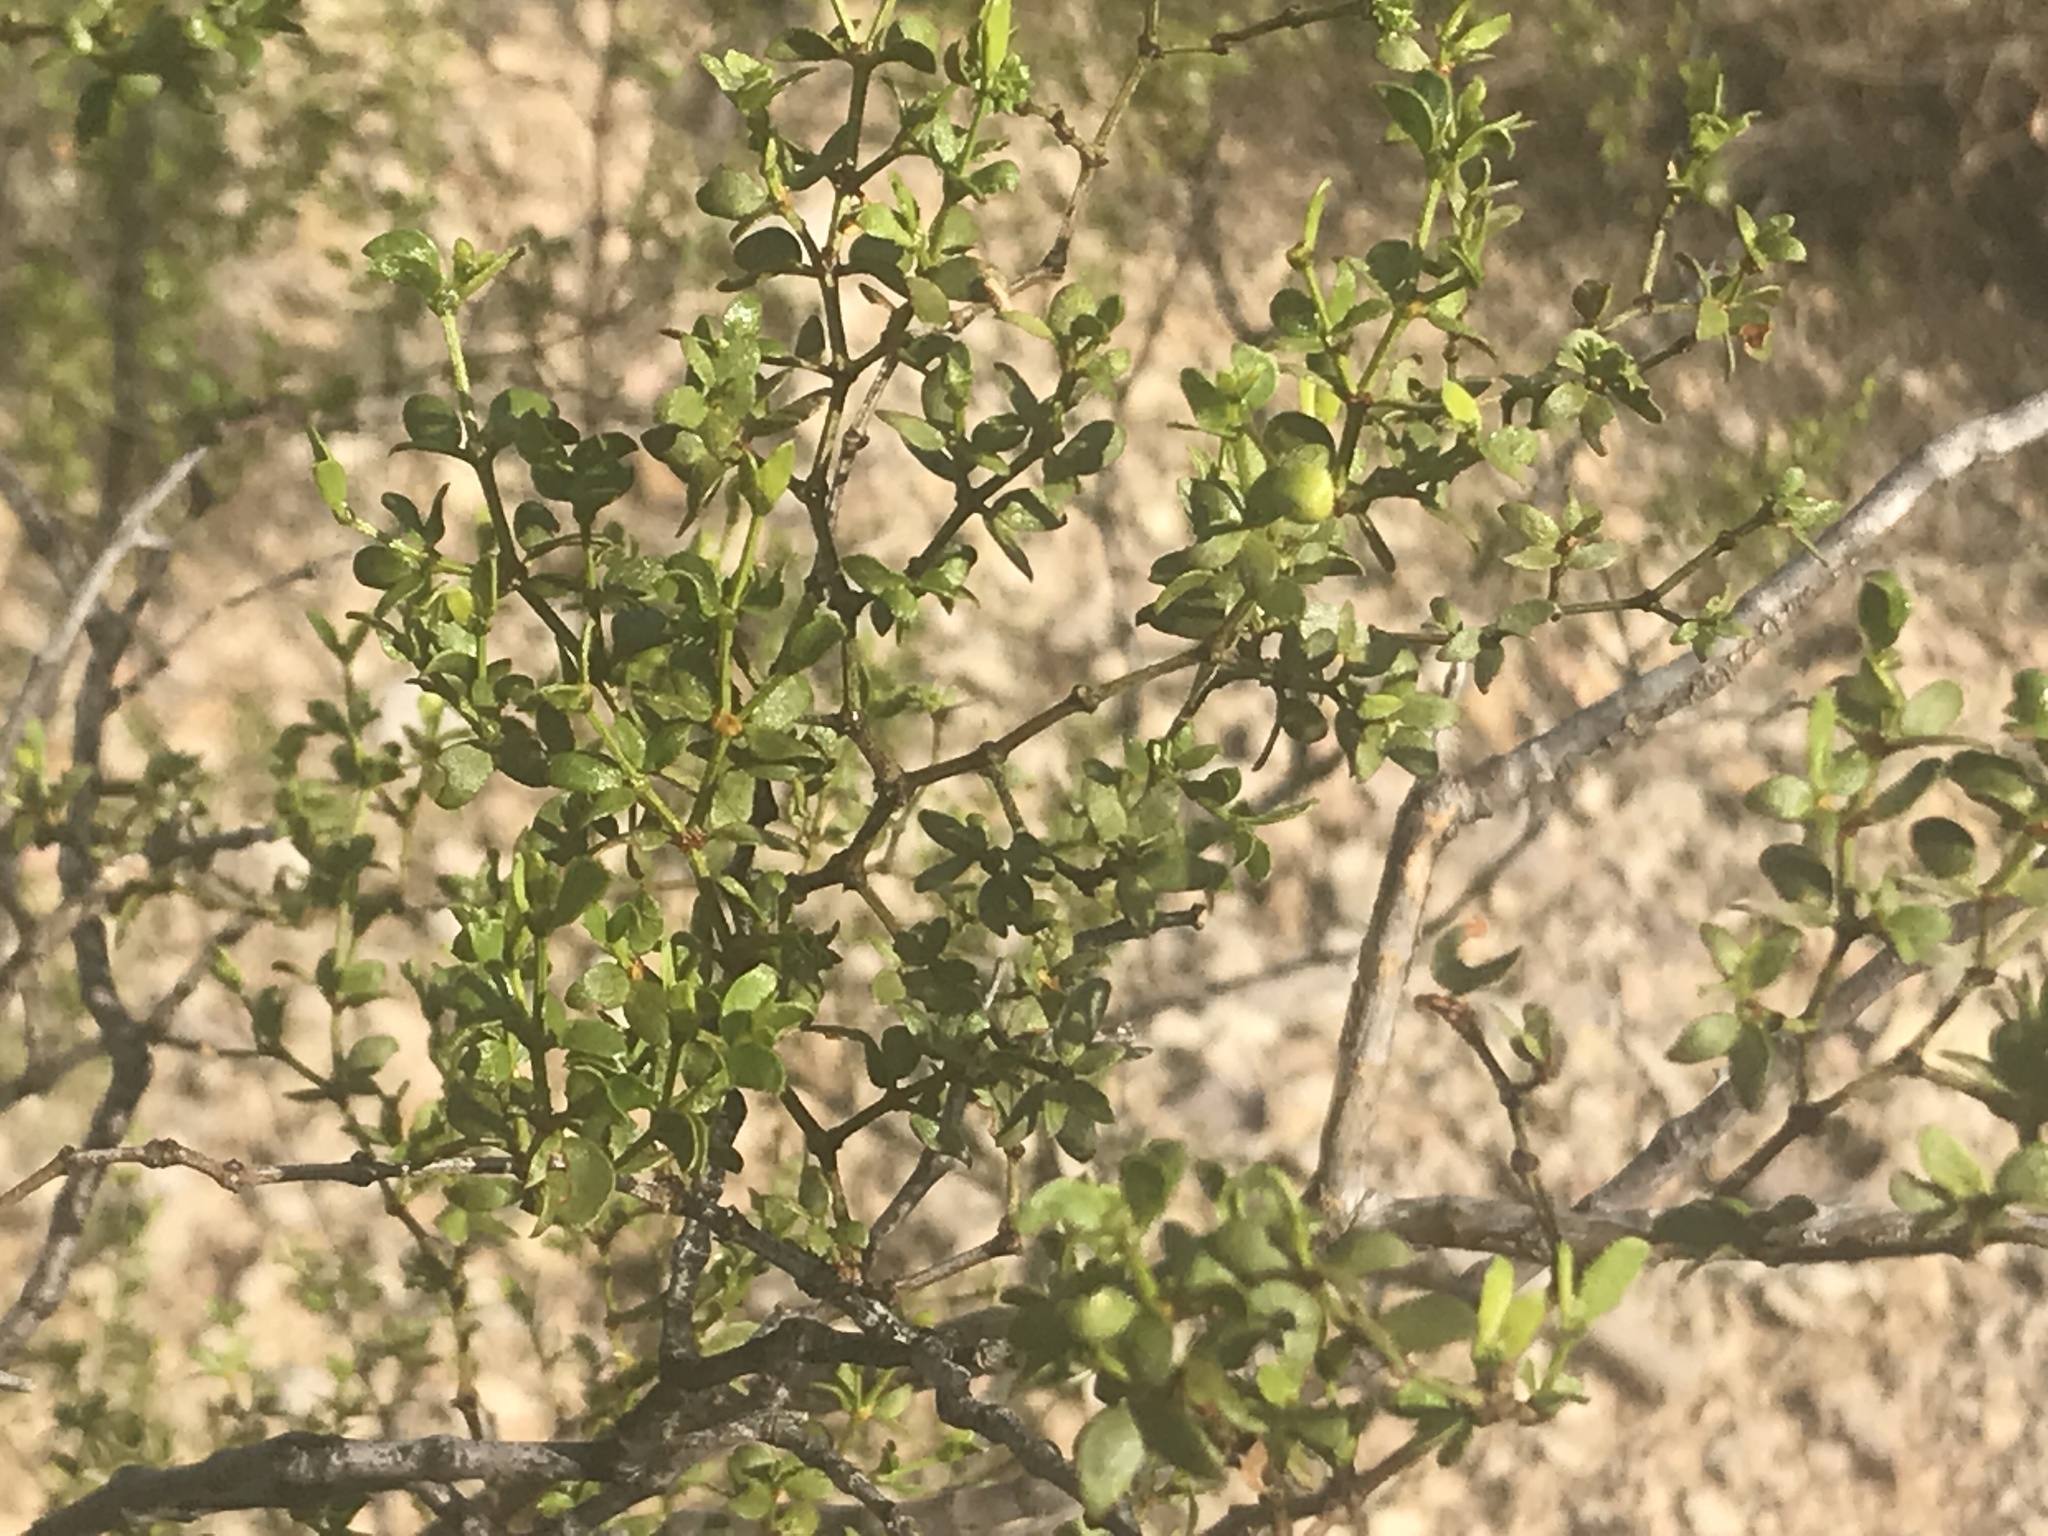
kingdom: Plantae
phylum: Tracheophyta
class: Magnoliopsida
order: Zygophyllales
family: Zygophyllaceae
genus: Larrea
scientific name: Larrea tridentata
